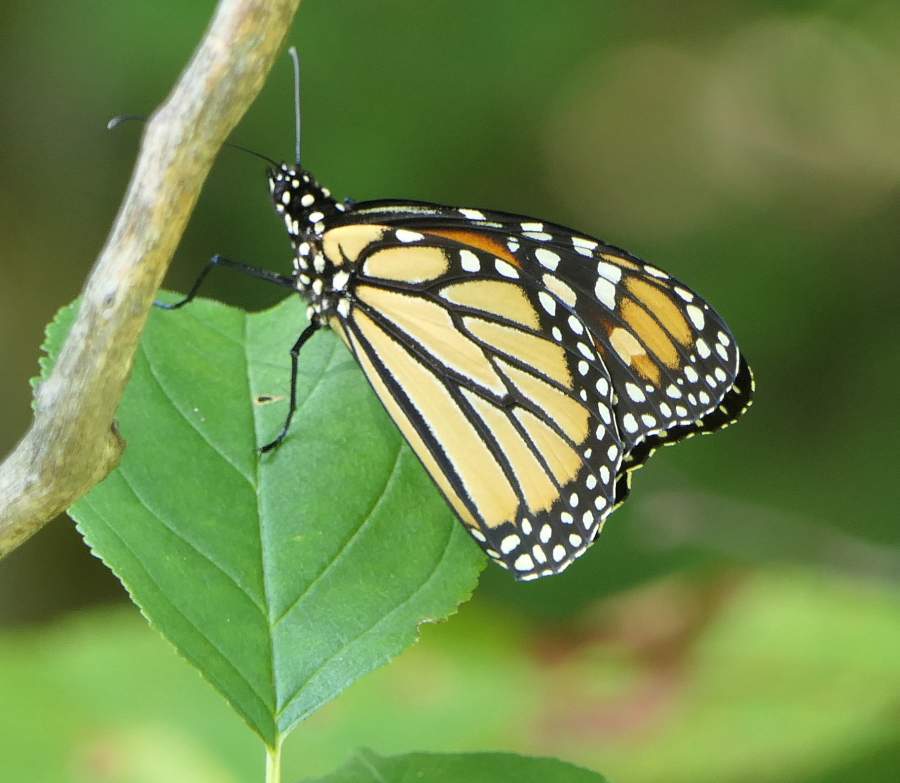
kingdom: Animalia
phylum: Arthropoda
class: Insecta
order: Lepidoptera
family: Nymphalidae
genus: Danaus
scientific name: Danaus plexippus
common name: Monarch
